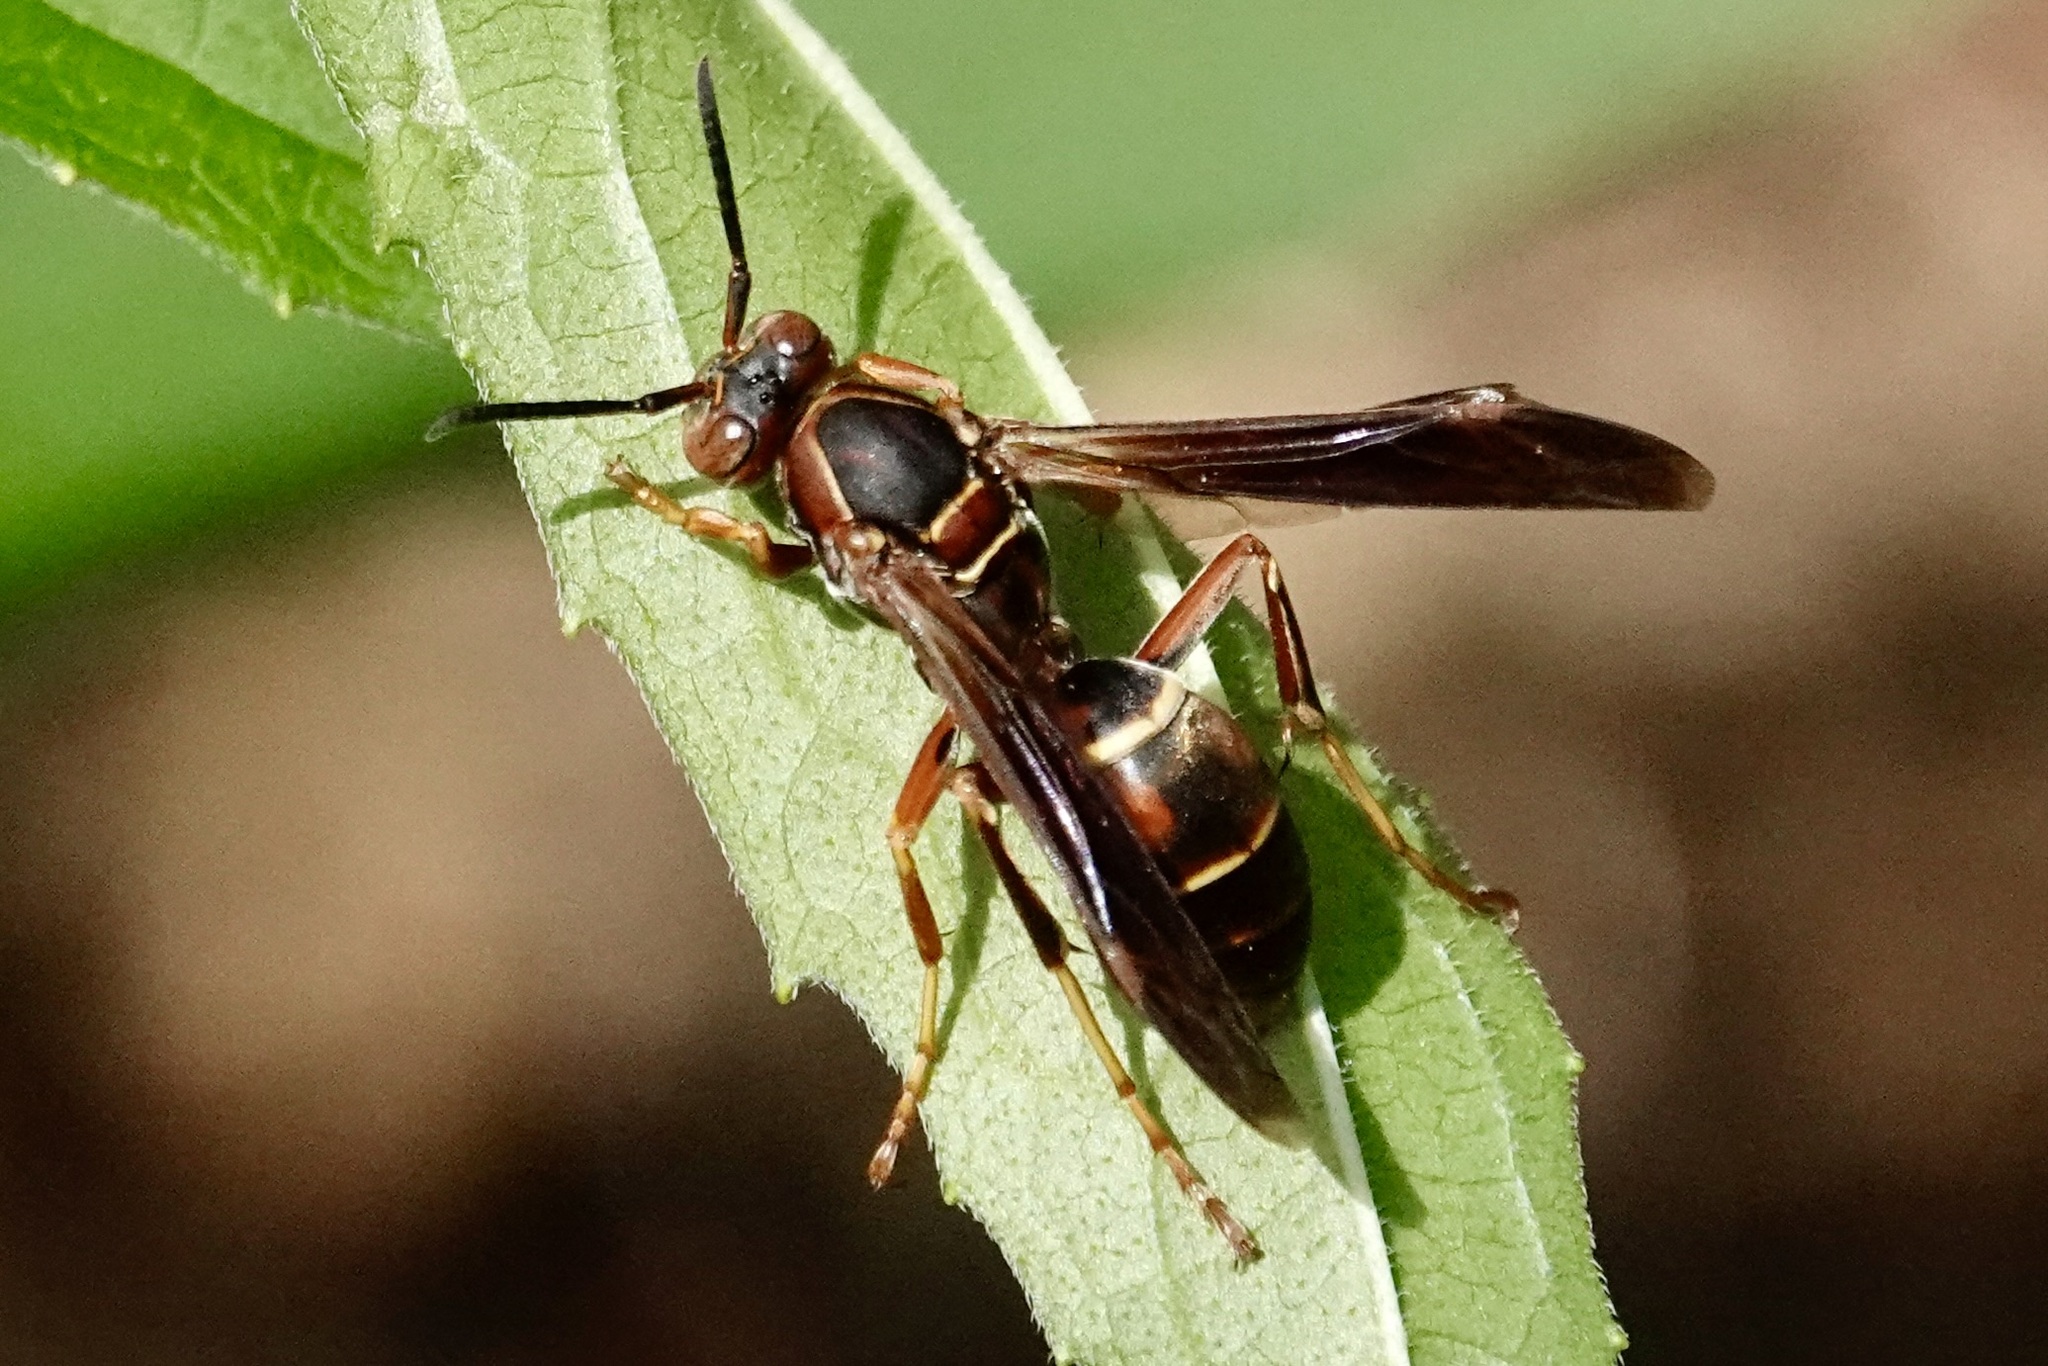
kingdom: Animalia
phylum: Arthropoda
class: Insecta
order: Hymenoptera
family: Eumenidae
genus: Polistes
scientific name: Polistes fuscatus
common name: Dark paper wasp
